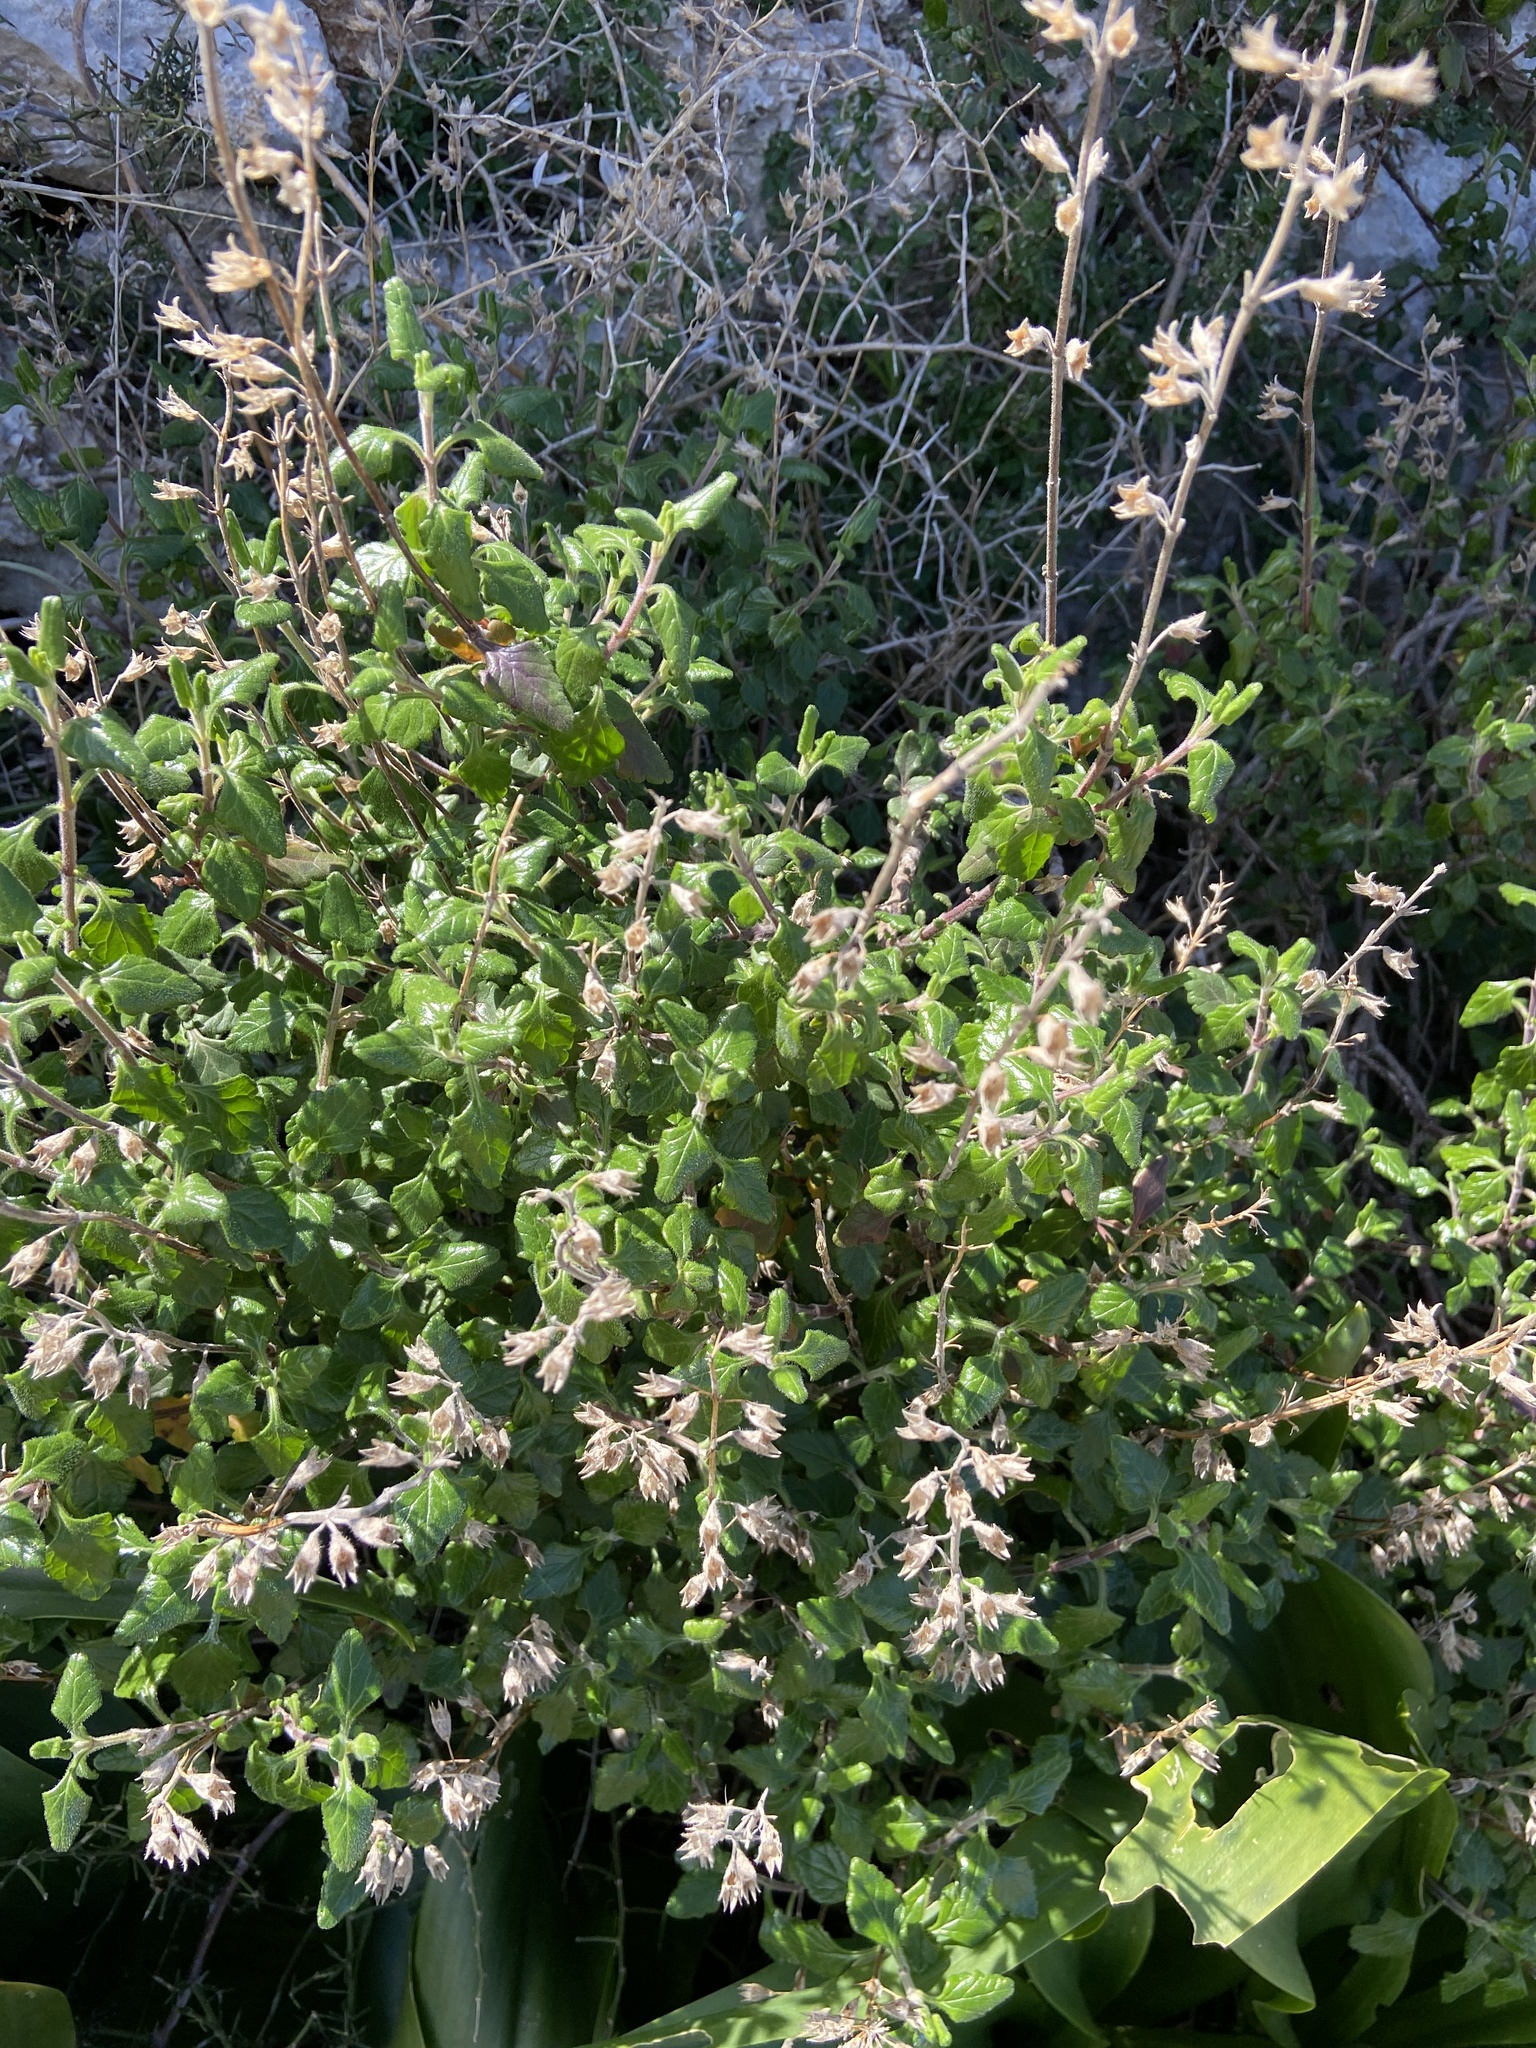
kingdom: Plantae
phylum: Tracheophyta
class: Magnoliopsida
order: Lamiales
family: Lamiaceae
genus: Teucrium
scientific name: Teucrium flavum
